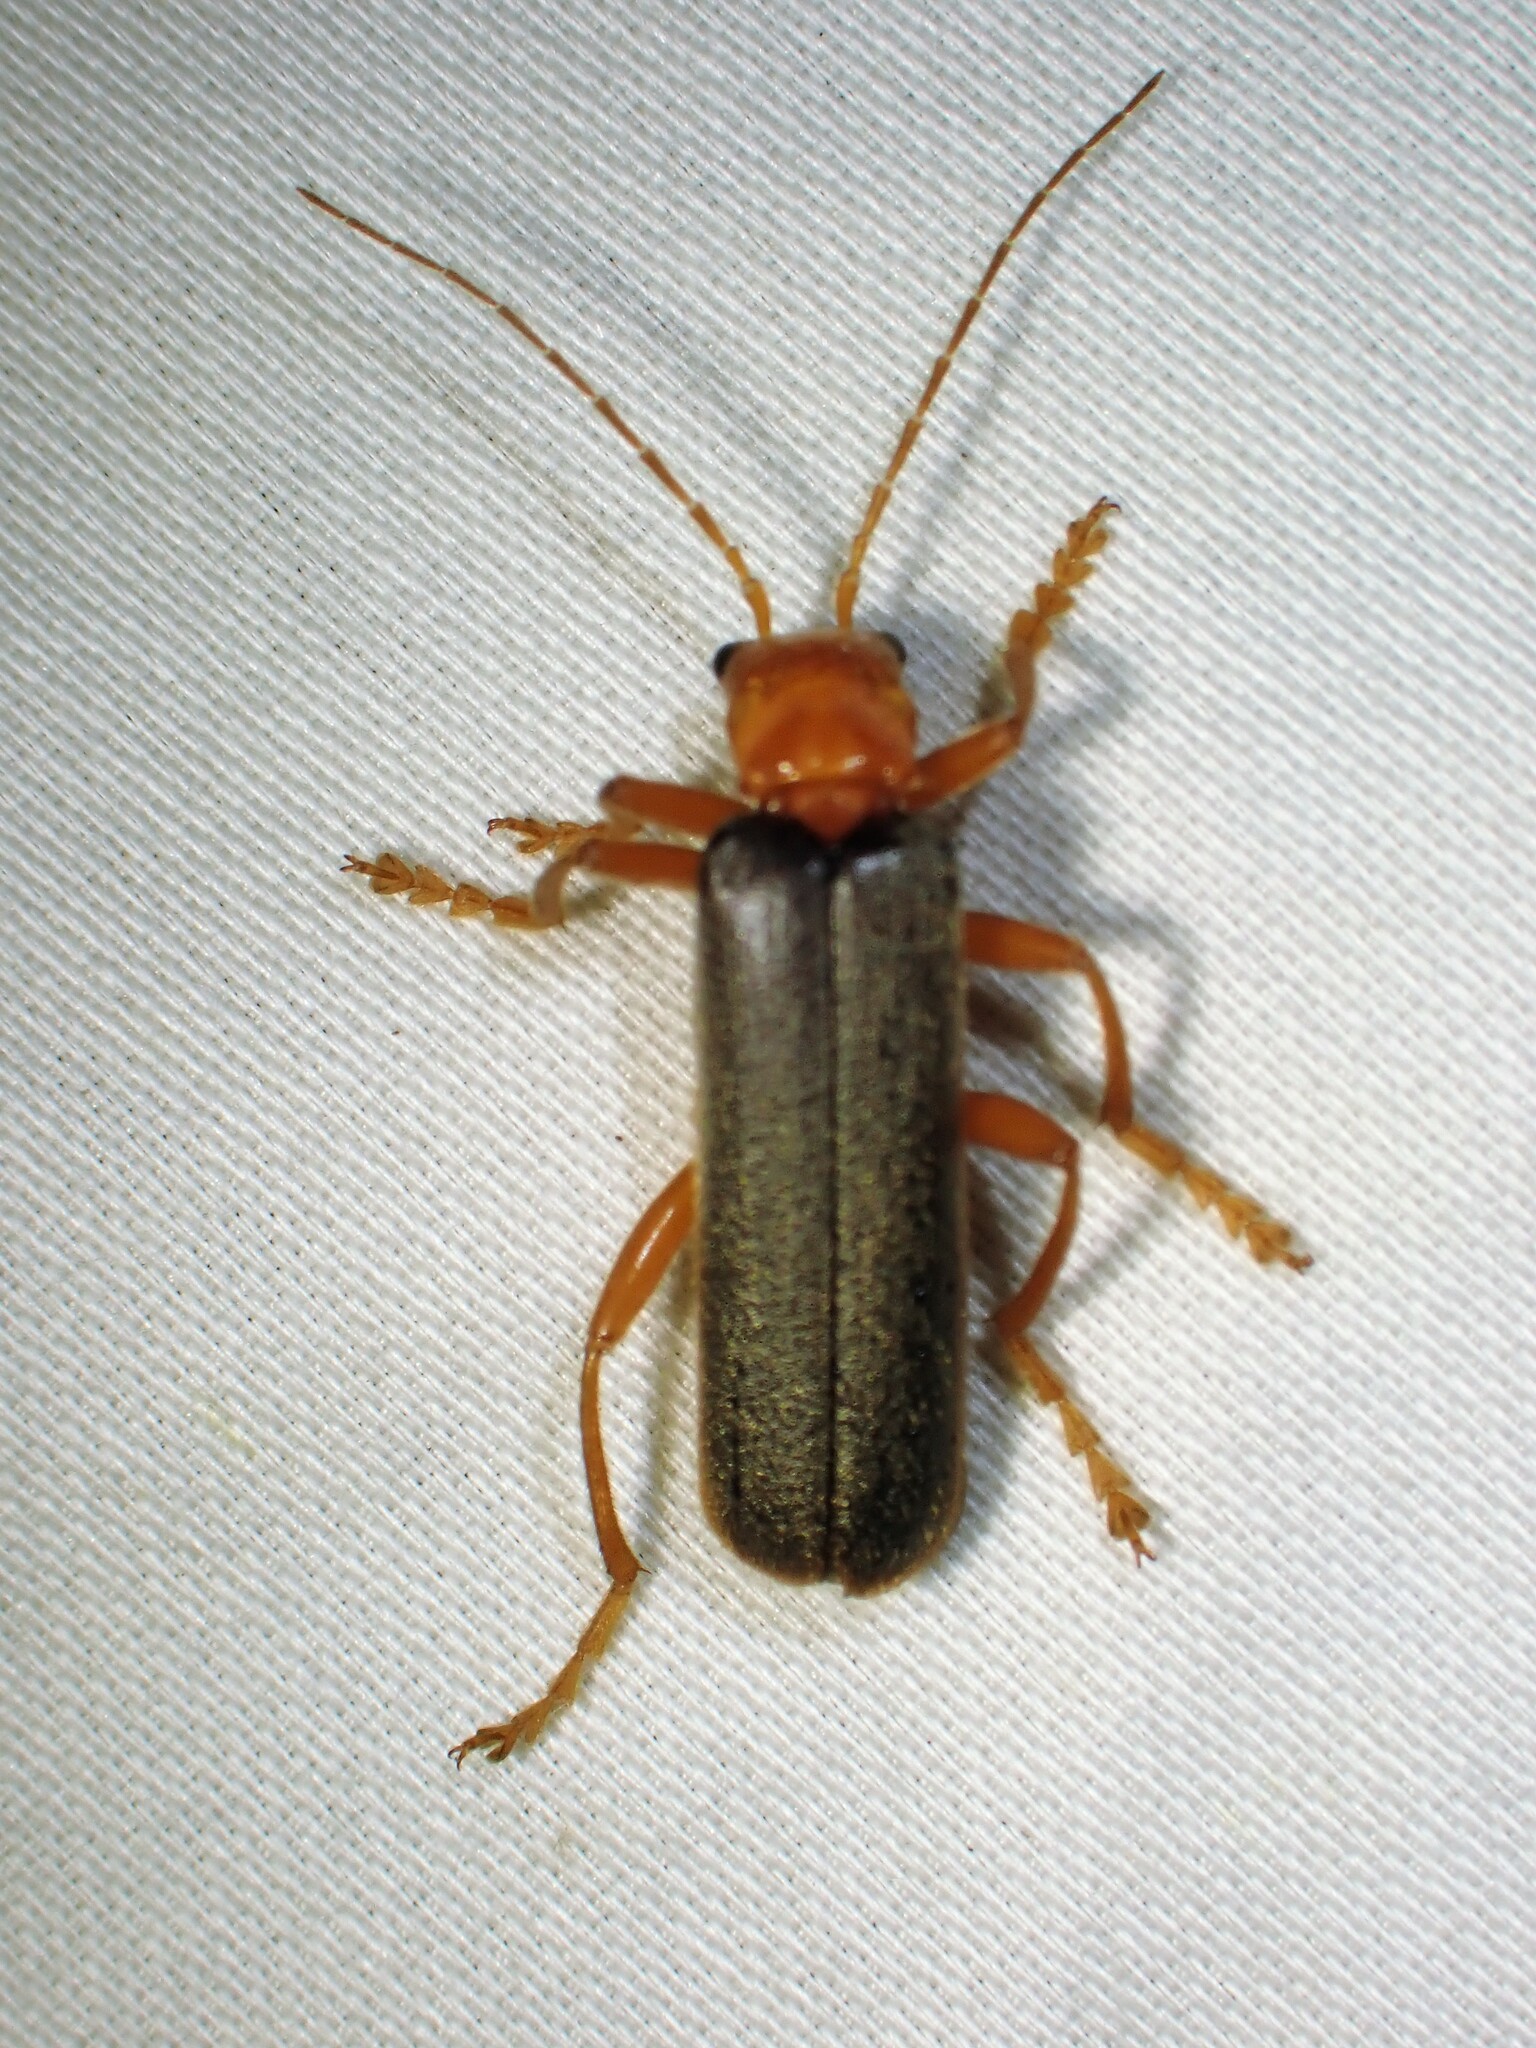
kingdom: Animalia
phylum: Arthropoda
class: Insecta
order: Coleoptera
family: Cantharidae
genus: Pacificanthia
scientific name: Pacificanthia rotundicollis
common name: Brown leatherwing beetle
